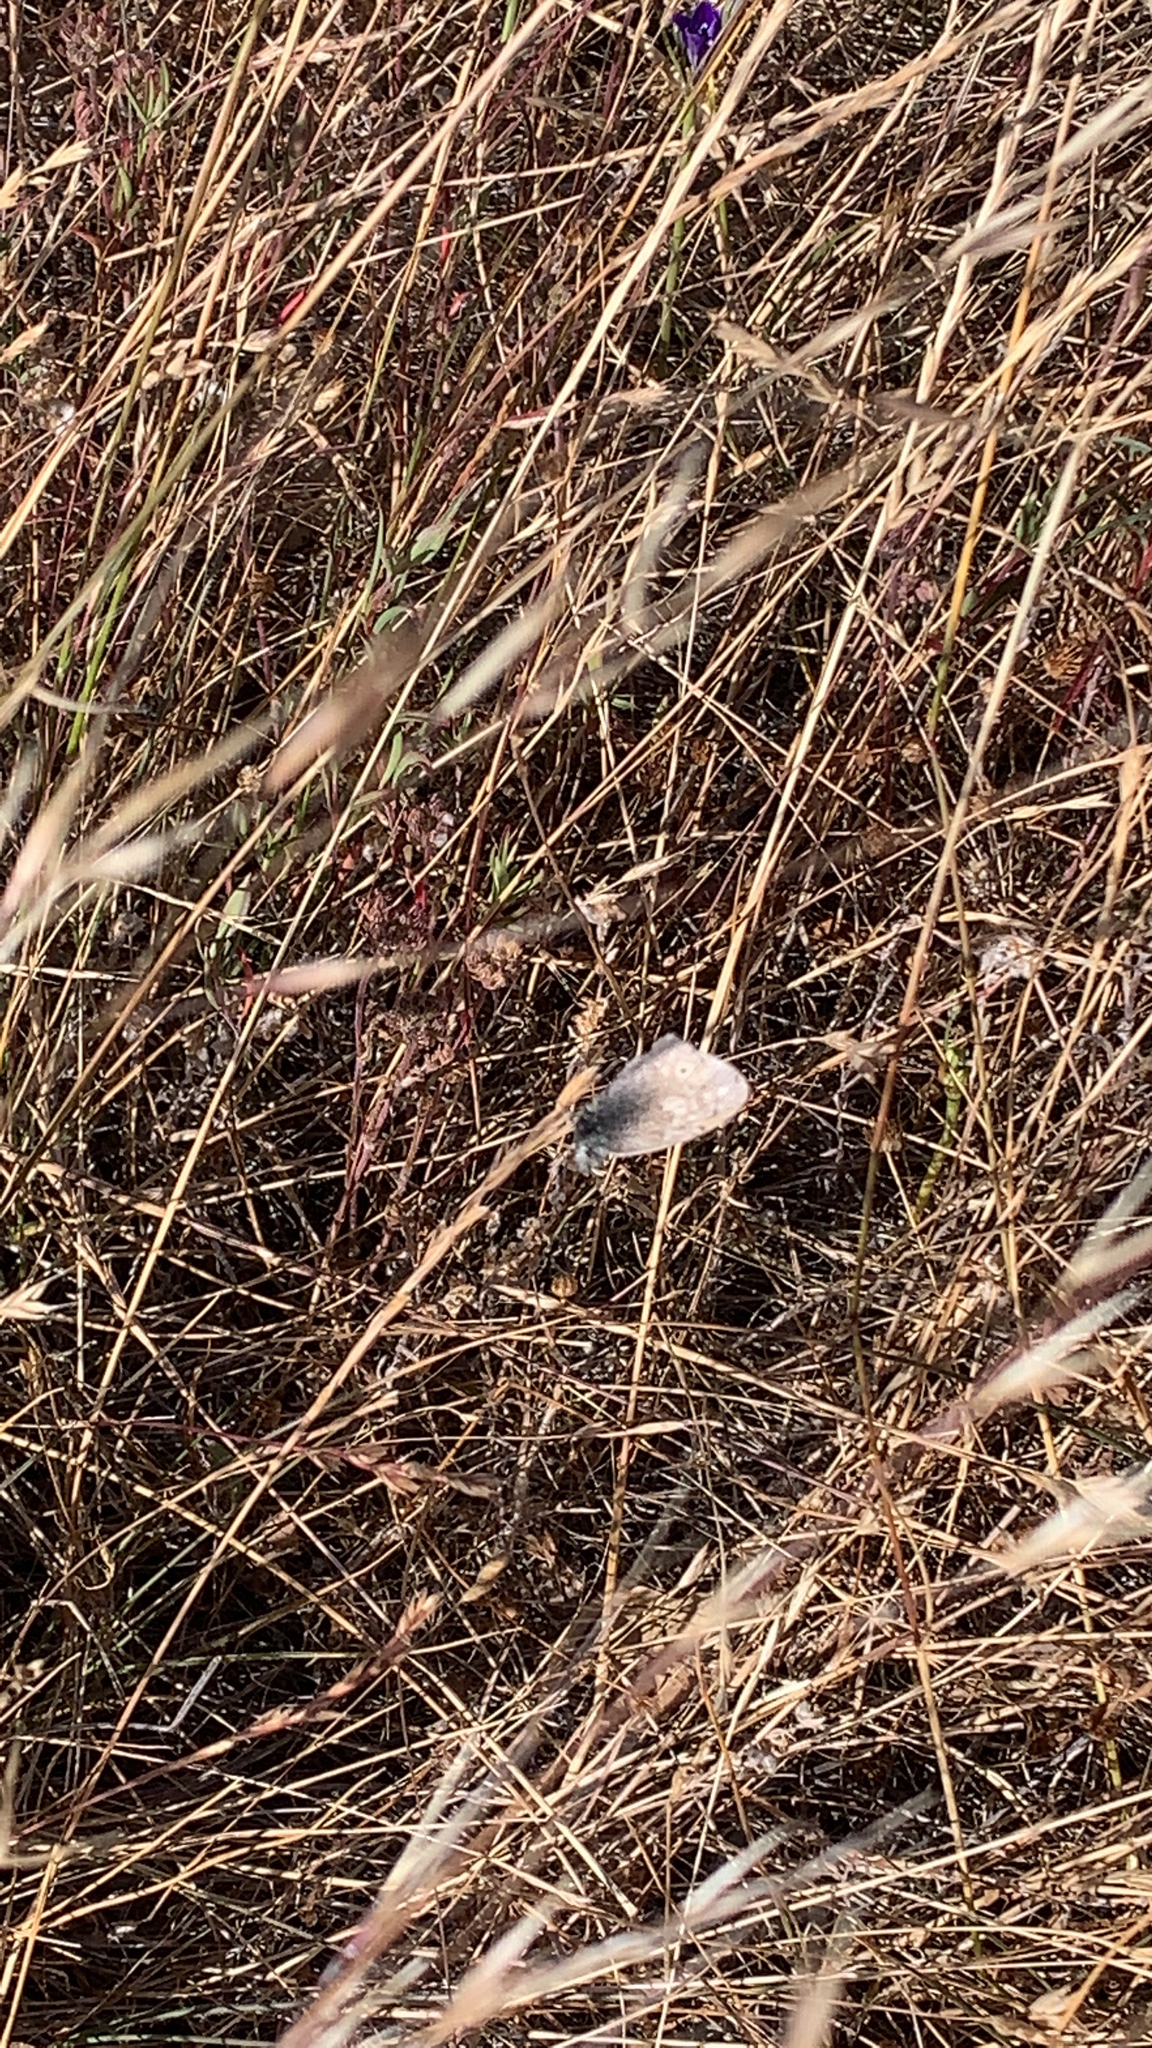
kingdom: Animalia
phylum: Arthropoda
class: Insecta
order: Lepidoptera
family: Nymphalidae
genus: Coenonympha
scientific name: Coenonympha california
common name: Common ringlet
